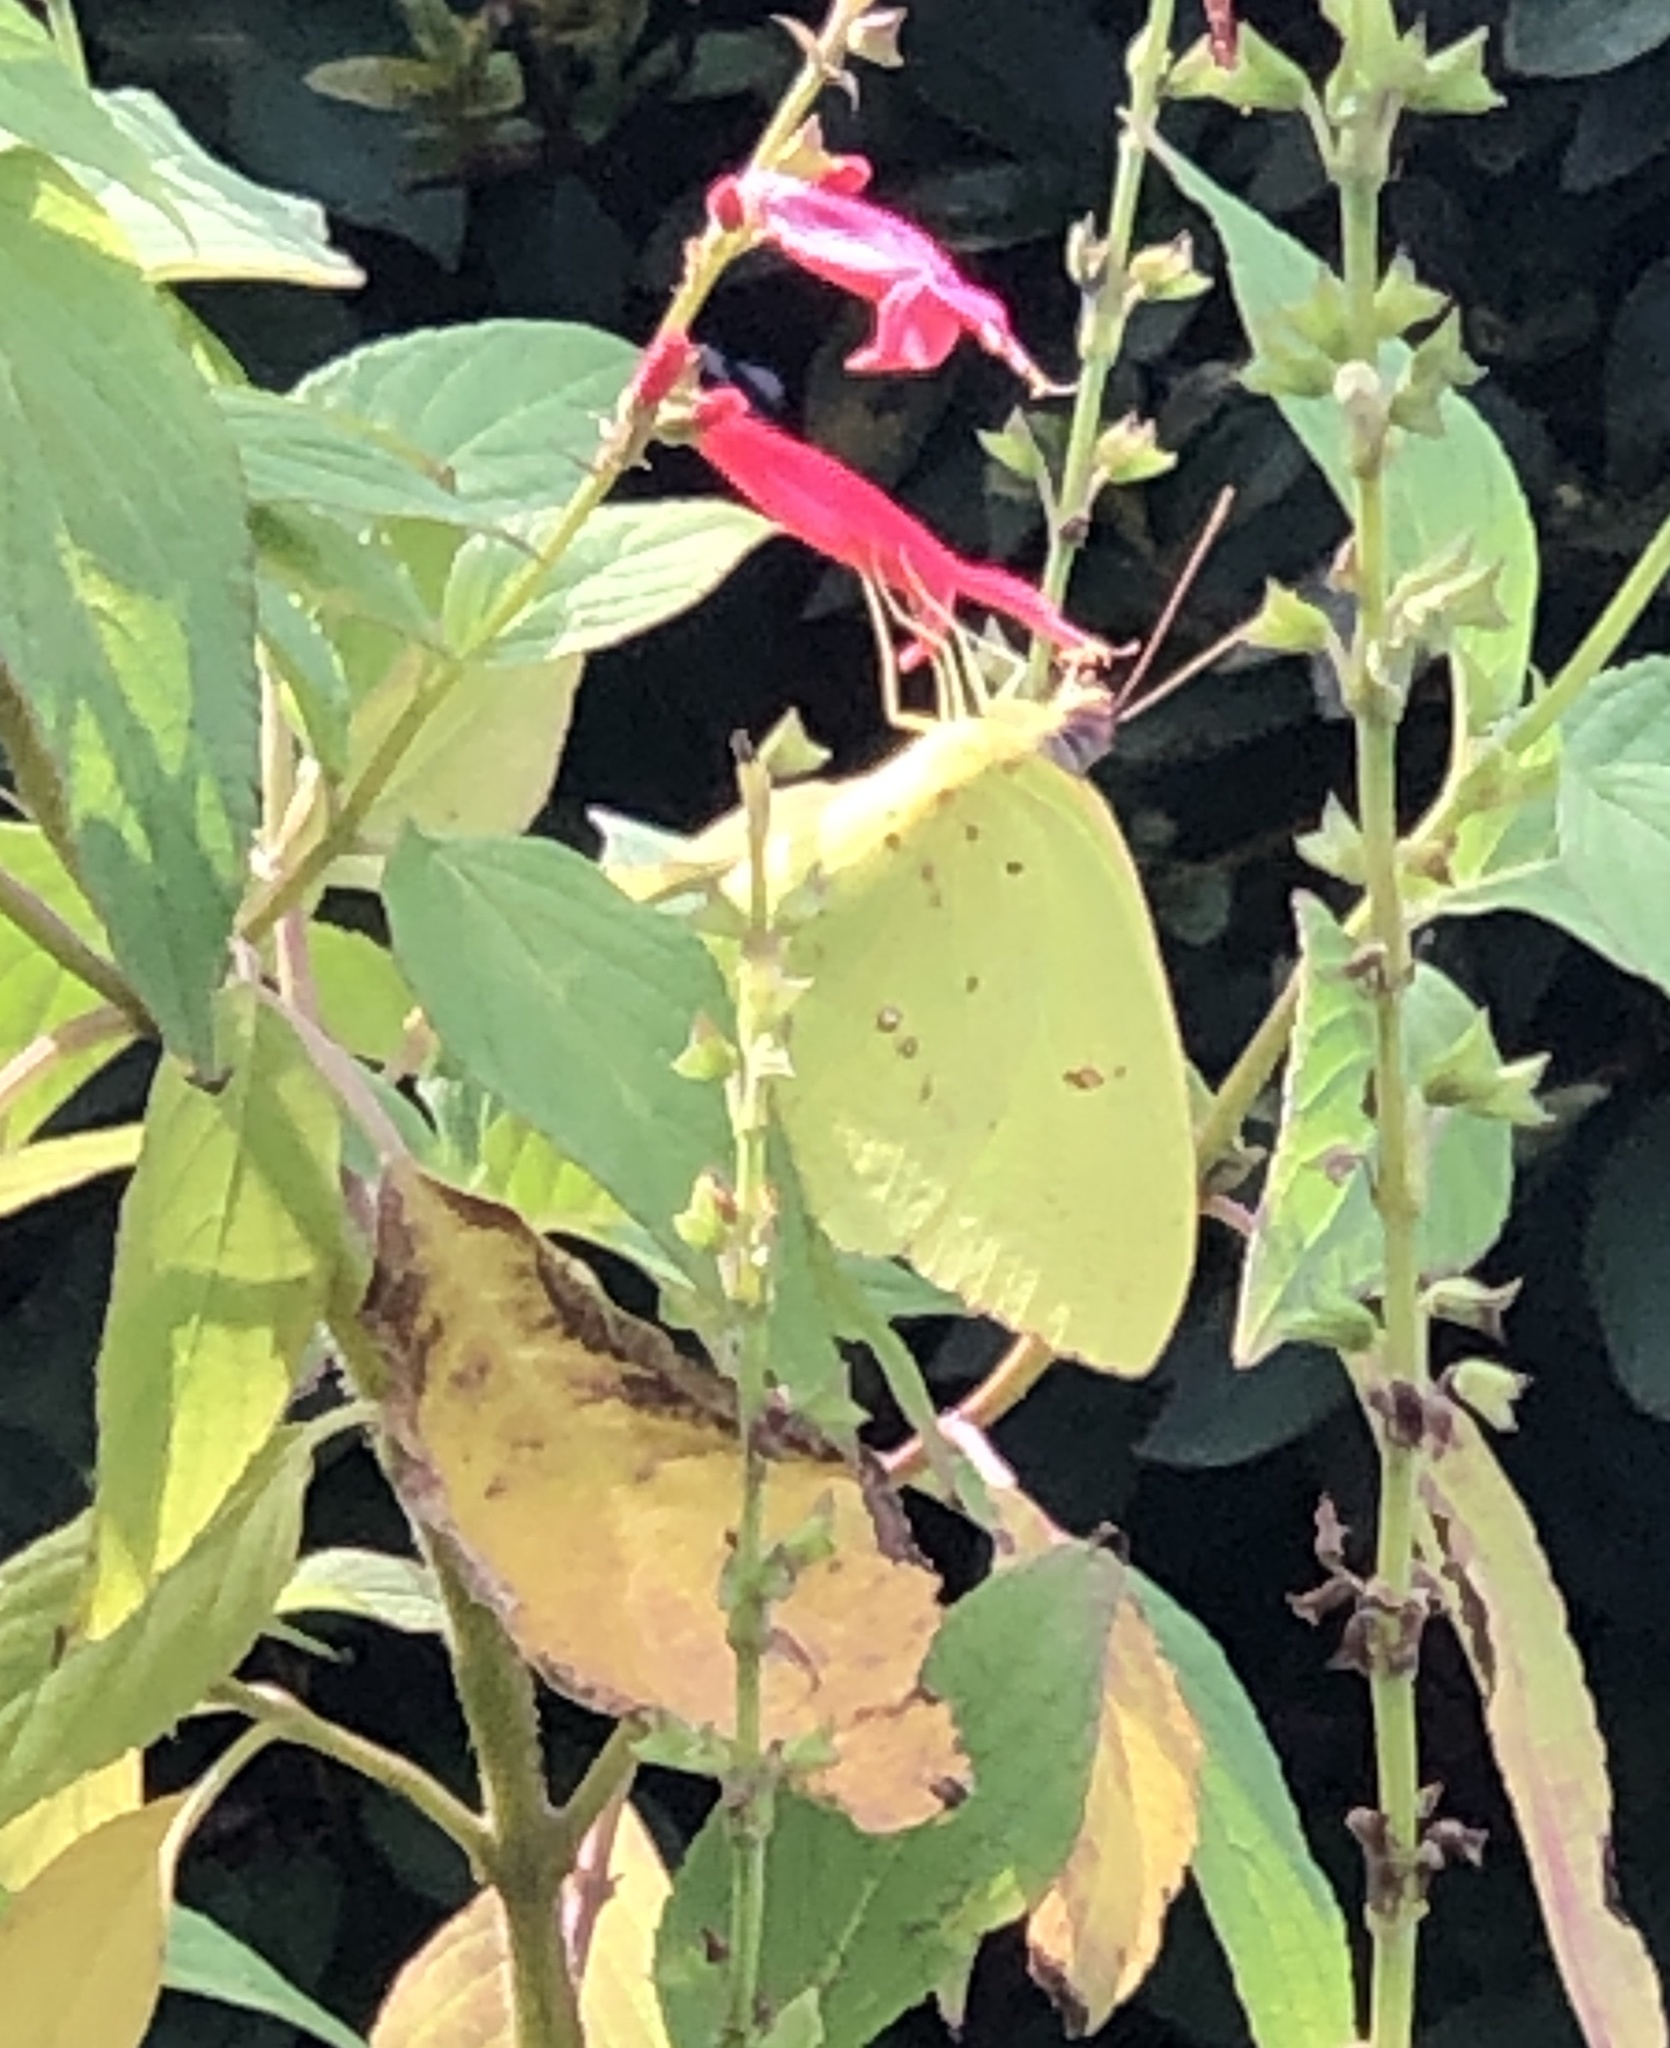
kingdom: Animalia
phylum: Arthropoda
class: Insecta
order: Lepidoptera
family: Pieridae
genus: Phoebis
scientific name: Phoebis sennae
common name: Cloudless sulphur
